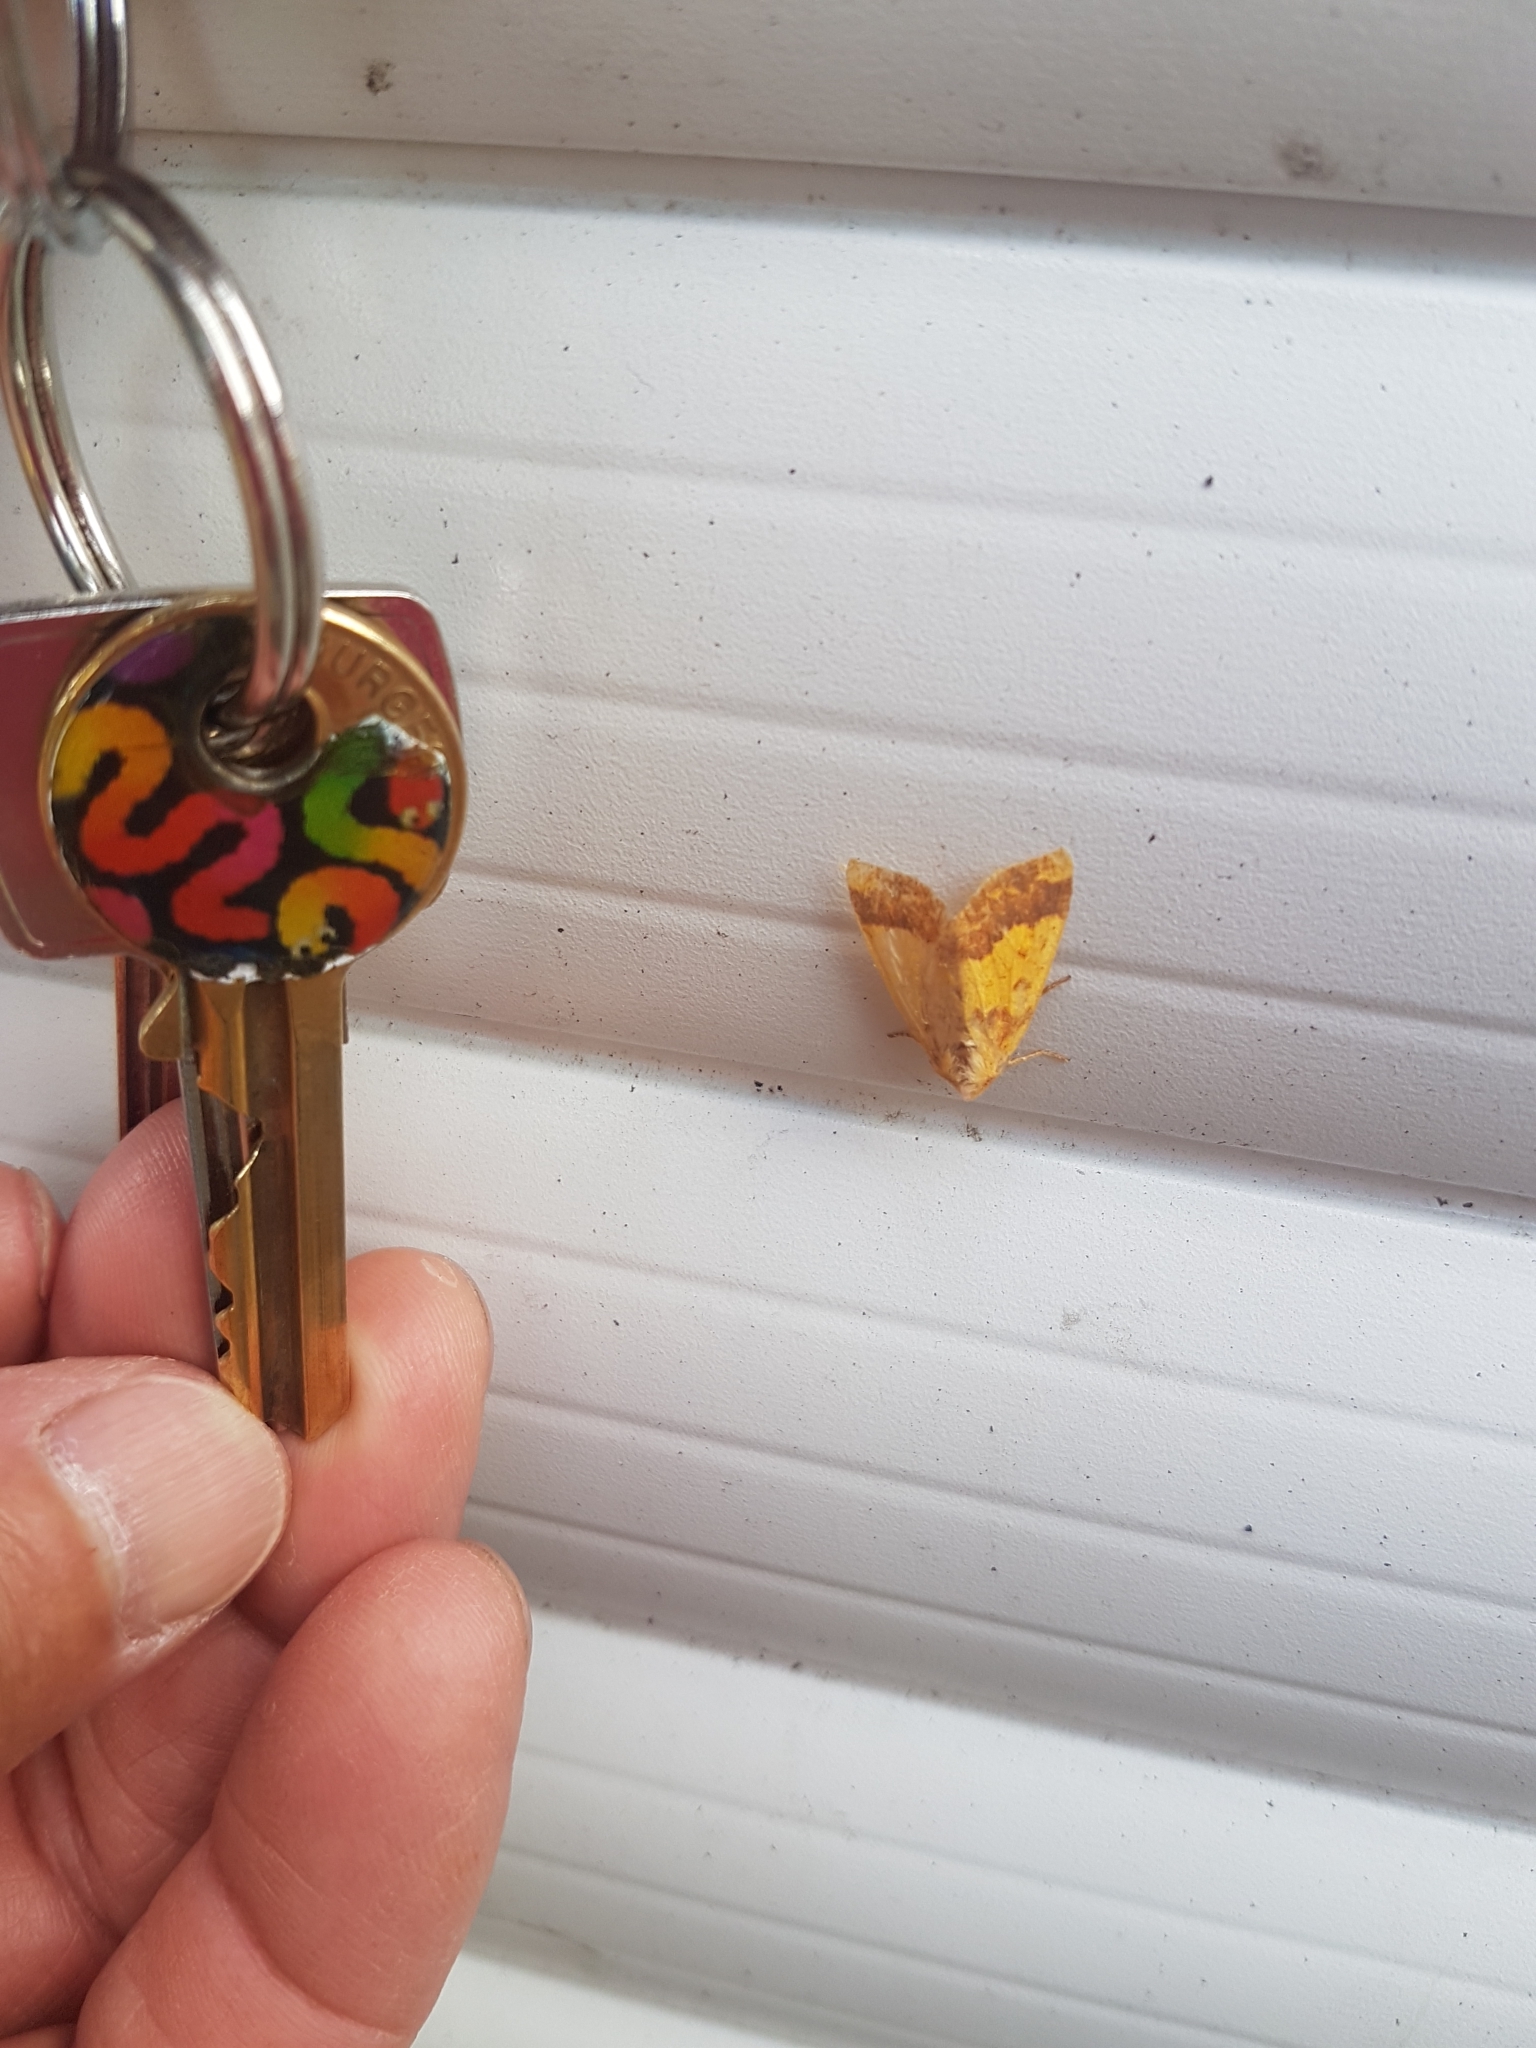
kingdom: Animalia
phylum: Arthropoda
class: Insecta
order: Lepidoptera
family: Noctuidae
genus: Tiliacea
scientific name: Tiliacea aurago
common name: Barred sallow
